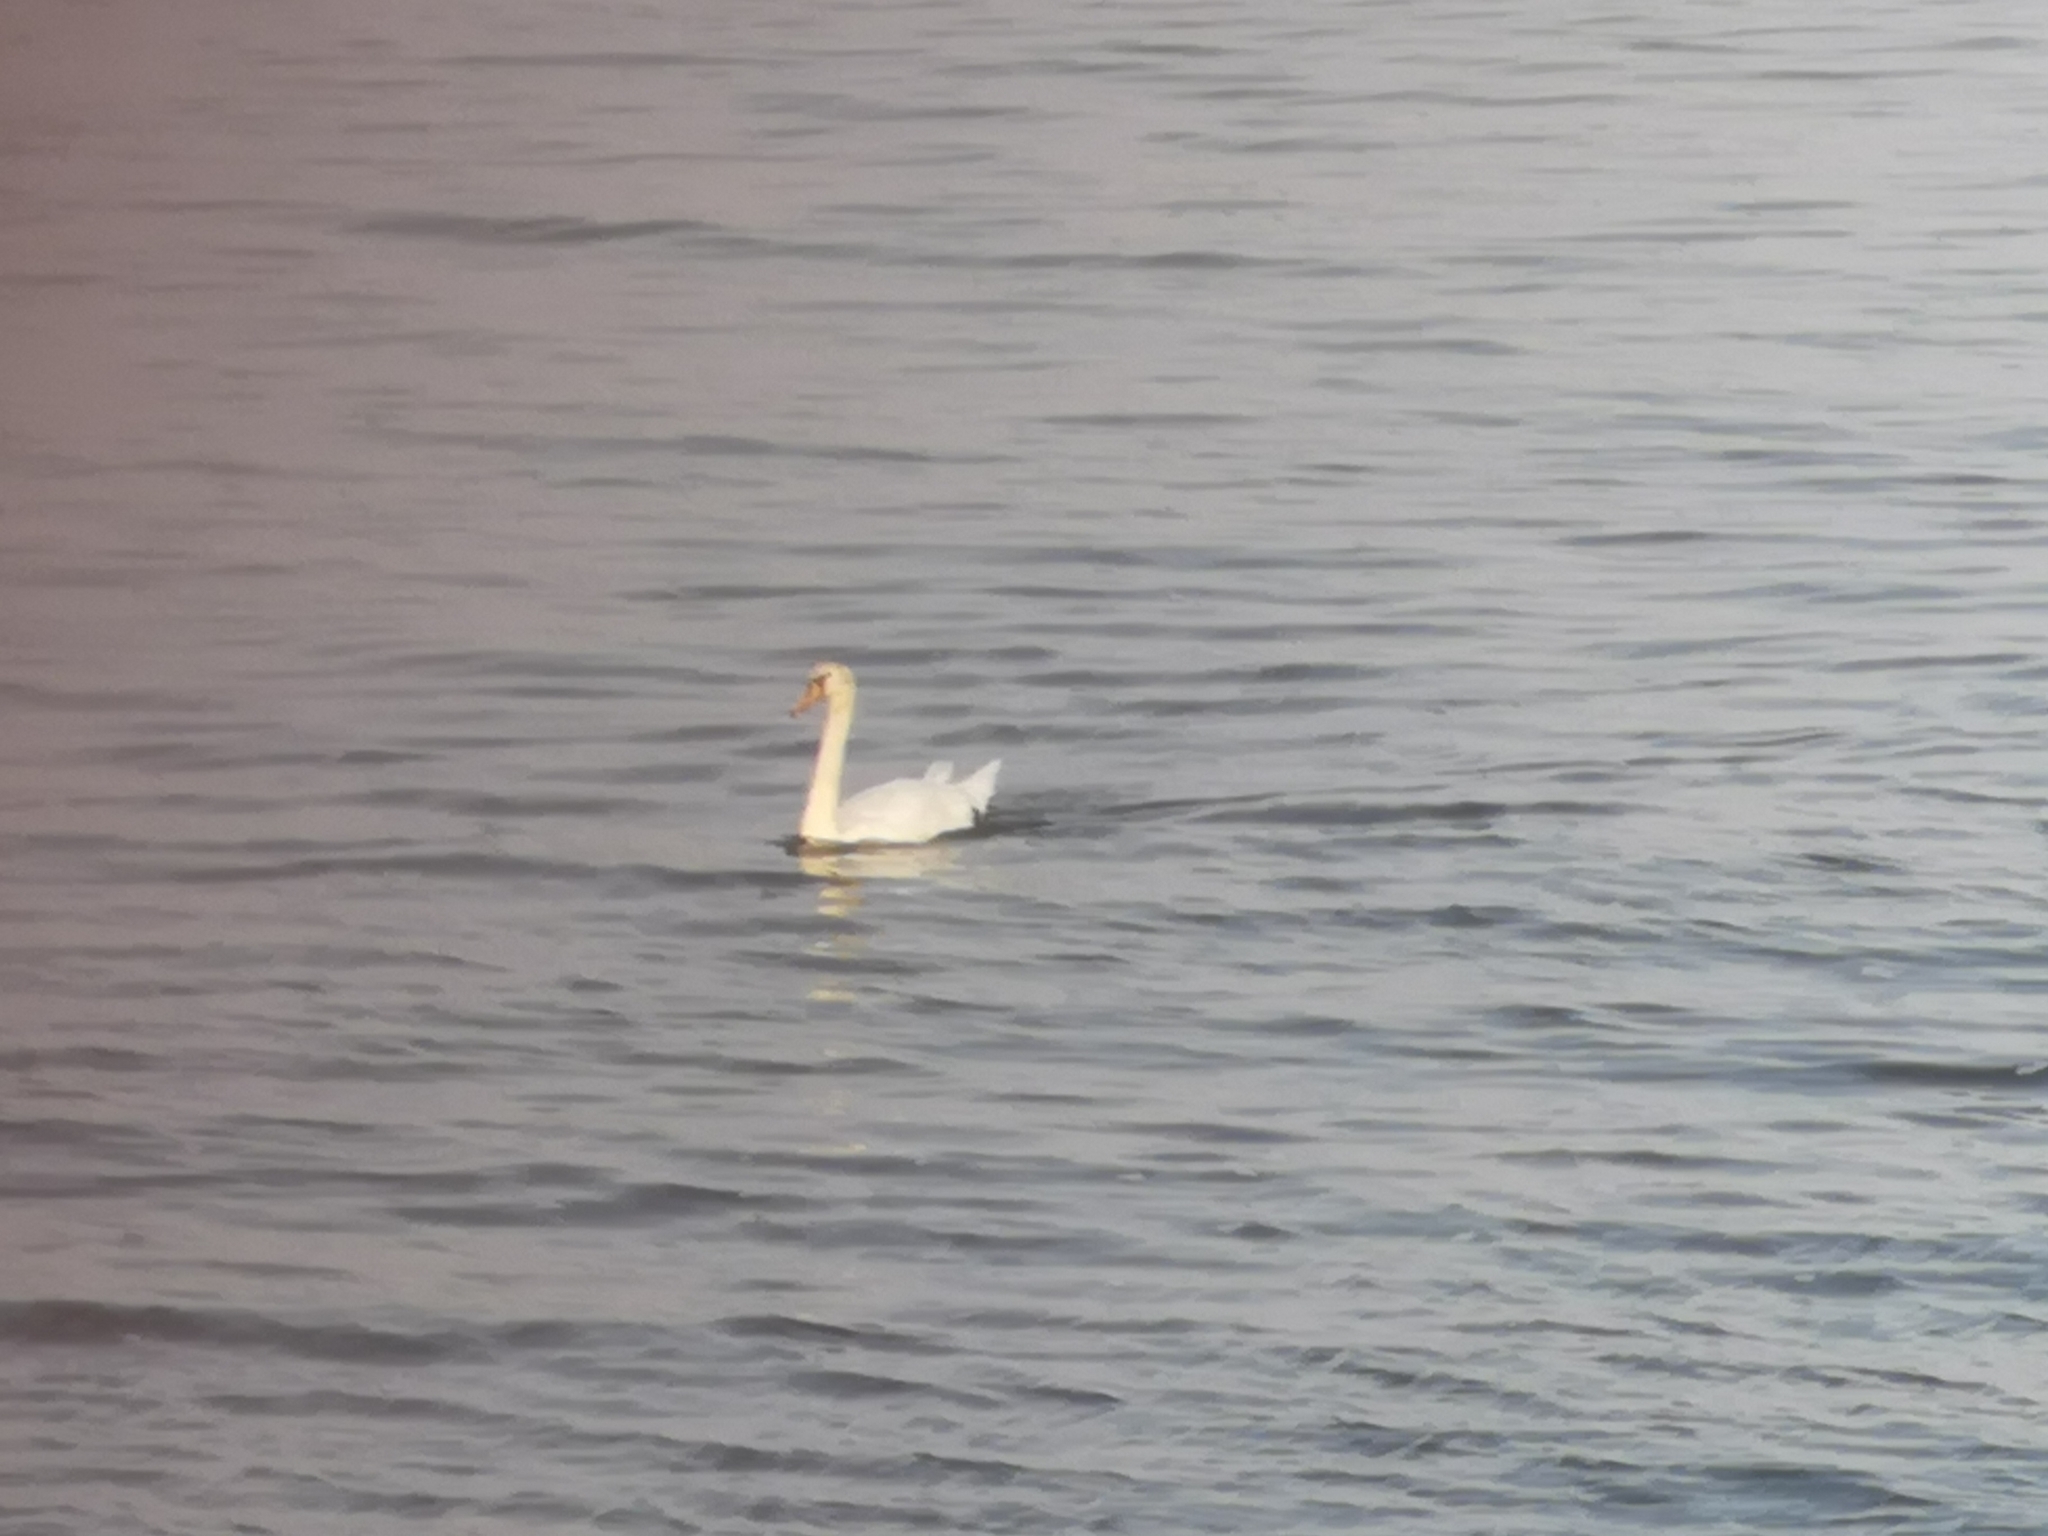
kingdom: Animalia
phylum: Chordata
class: Aves
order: Anseriformes
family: Anatidae
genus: Cygnus
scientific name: Cygnus olor
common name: Mute swan
